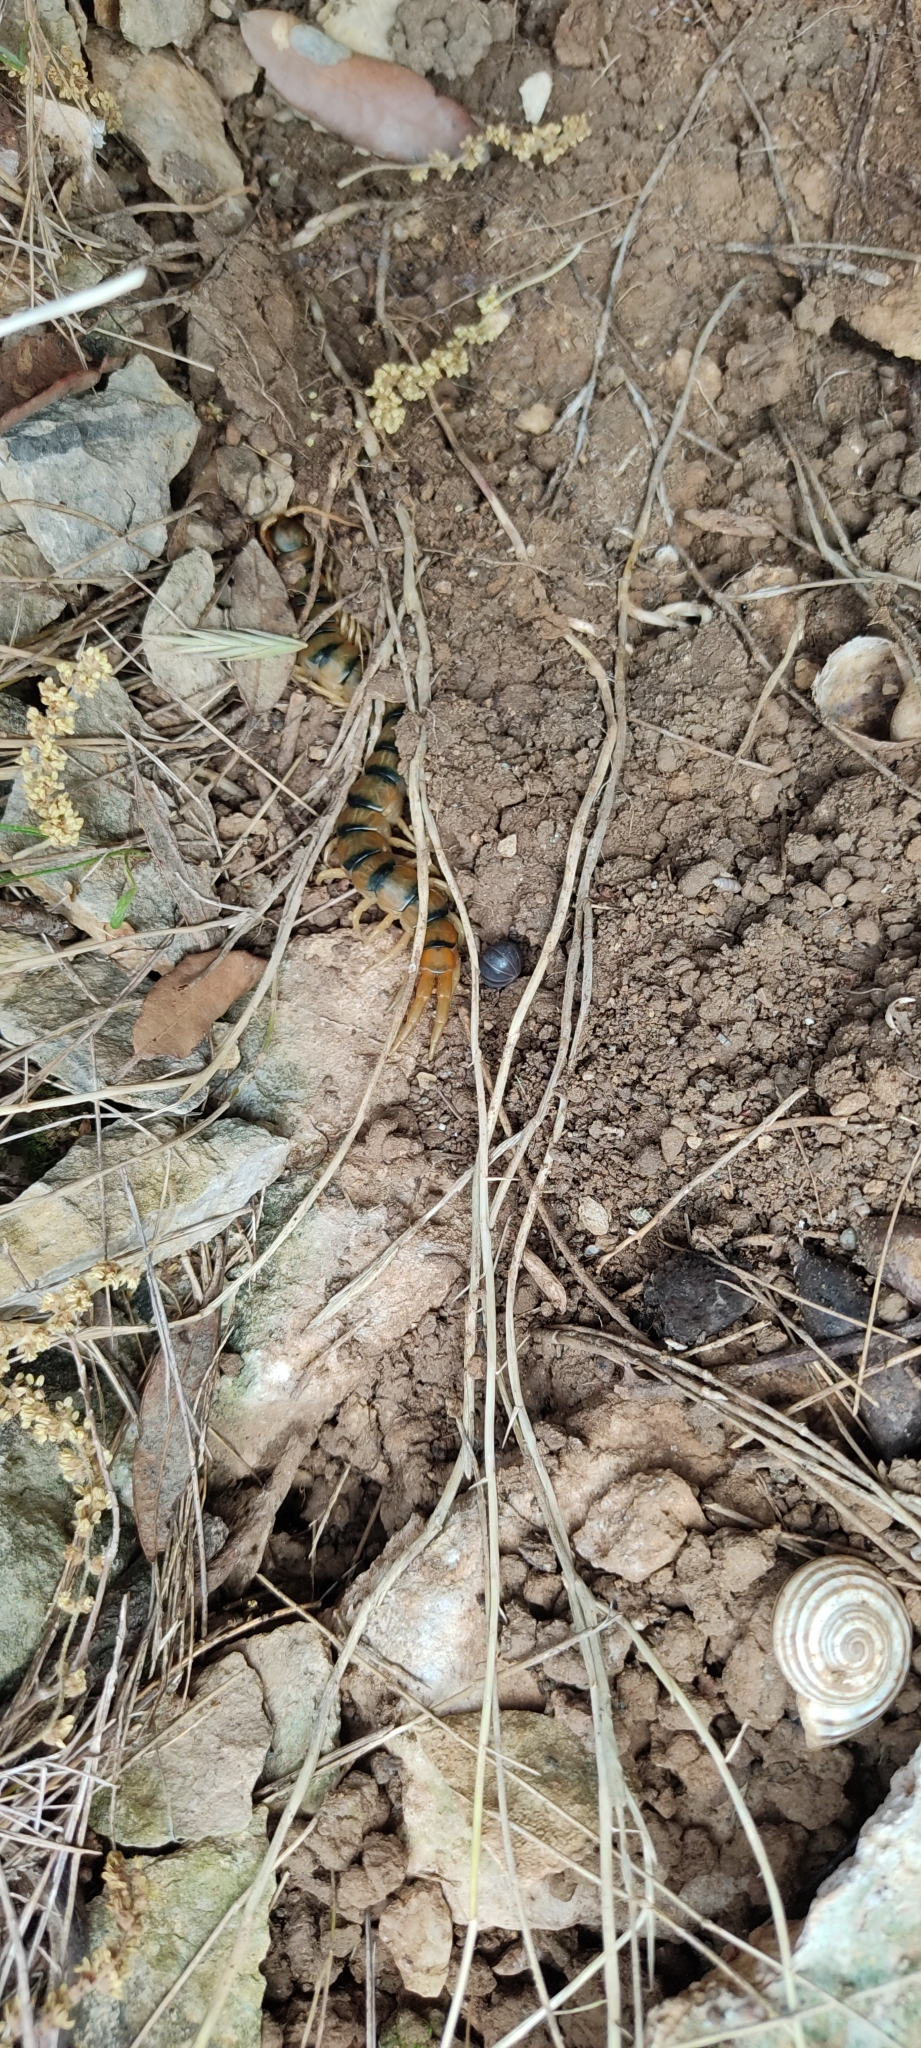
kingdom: Animalia
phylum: Arthropoda
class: Chilopoda
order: Scolopendromorpha
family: Scolopendridae
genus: Scolopendra
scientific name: Scolopendra cingulata
